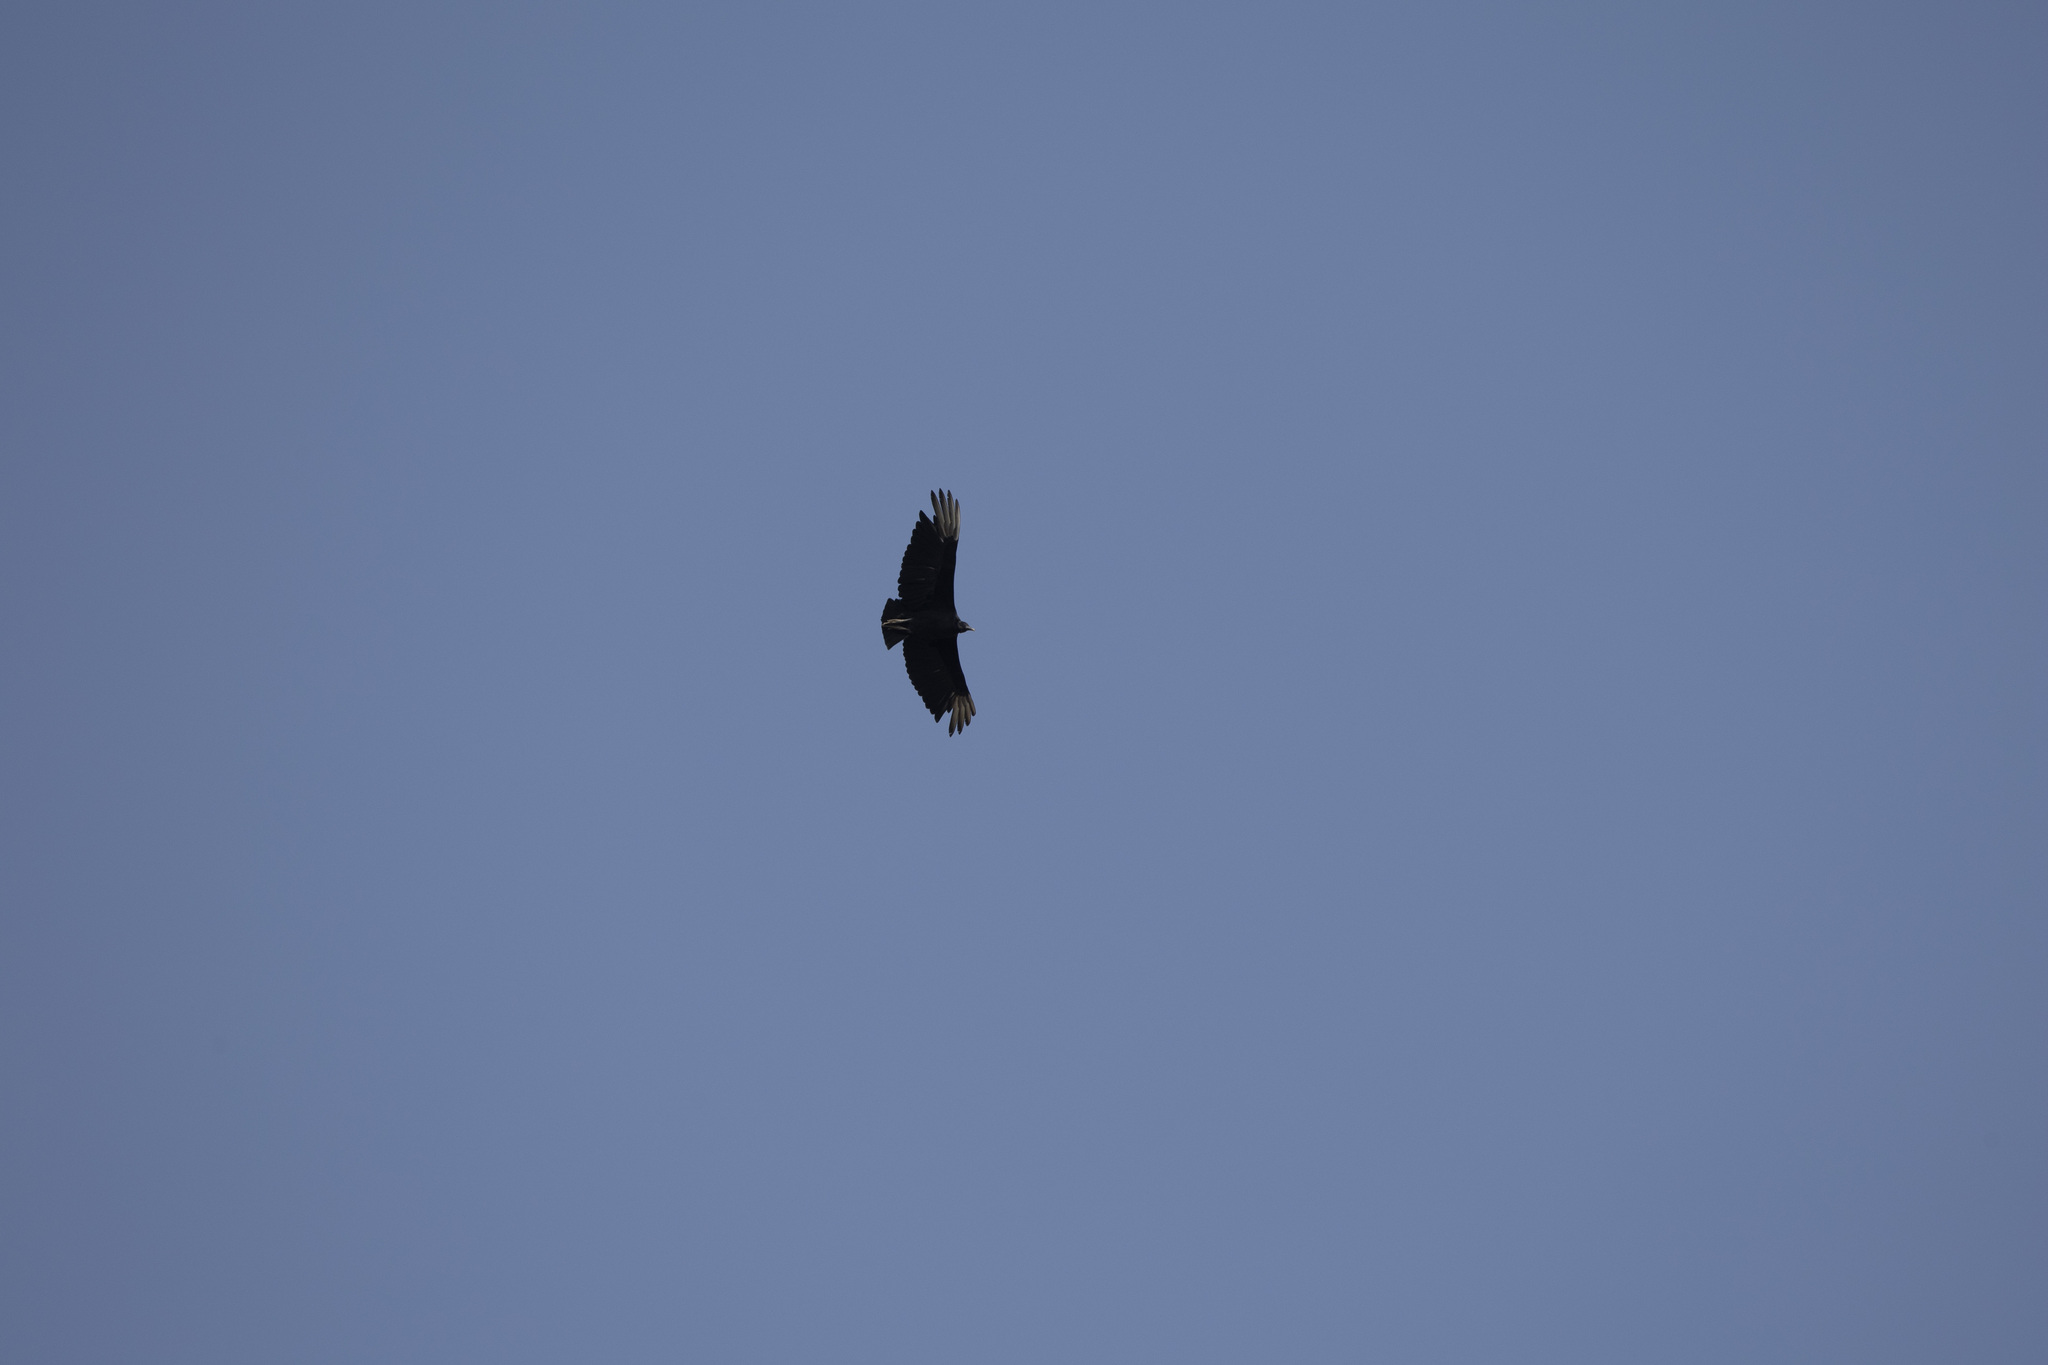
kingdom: Animalia
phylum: Chordata
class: Aves
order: Accipitriformes
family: Cathartidae
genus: Coragyps
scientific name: Coragyps atratus
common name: Black vulture
